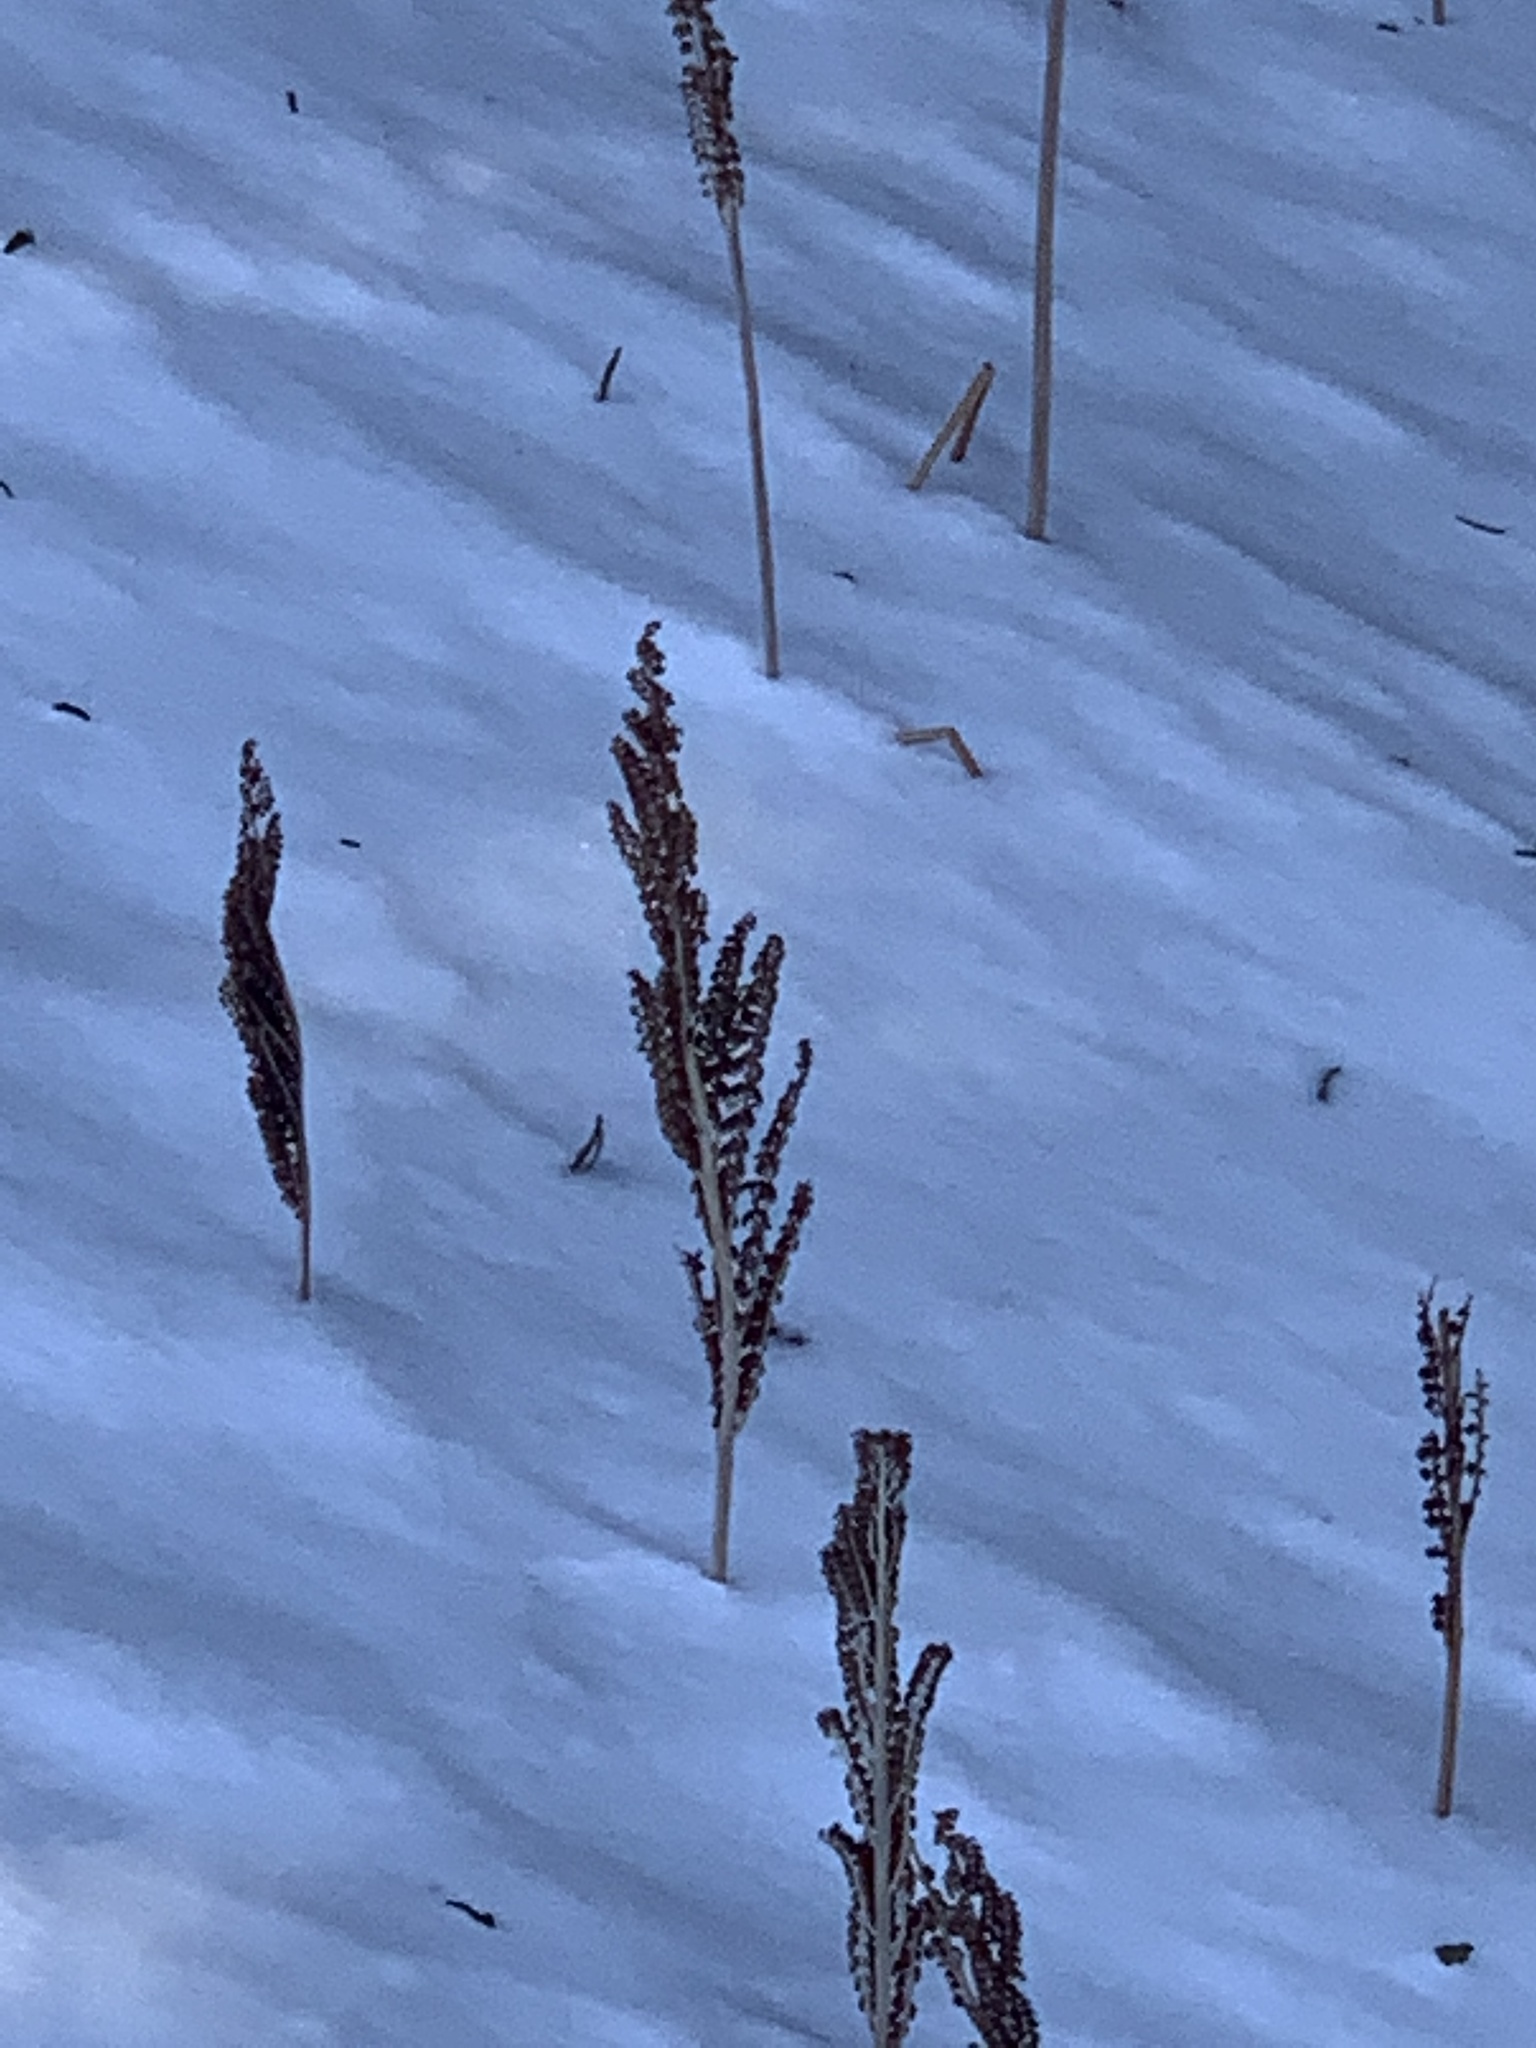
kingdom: Plantae
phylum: Tracheophyta
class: Polypodiopsida
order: Polypodiales
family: Onocleaceae
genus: Onoclea
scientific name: Onoclea sensibilis
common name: Sensitive fern
